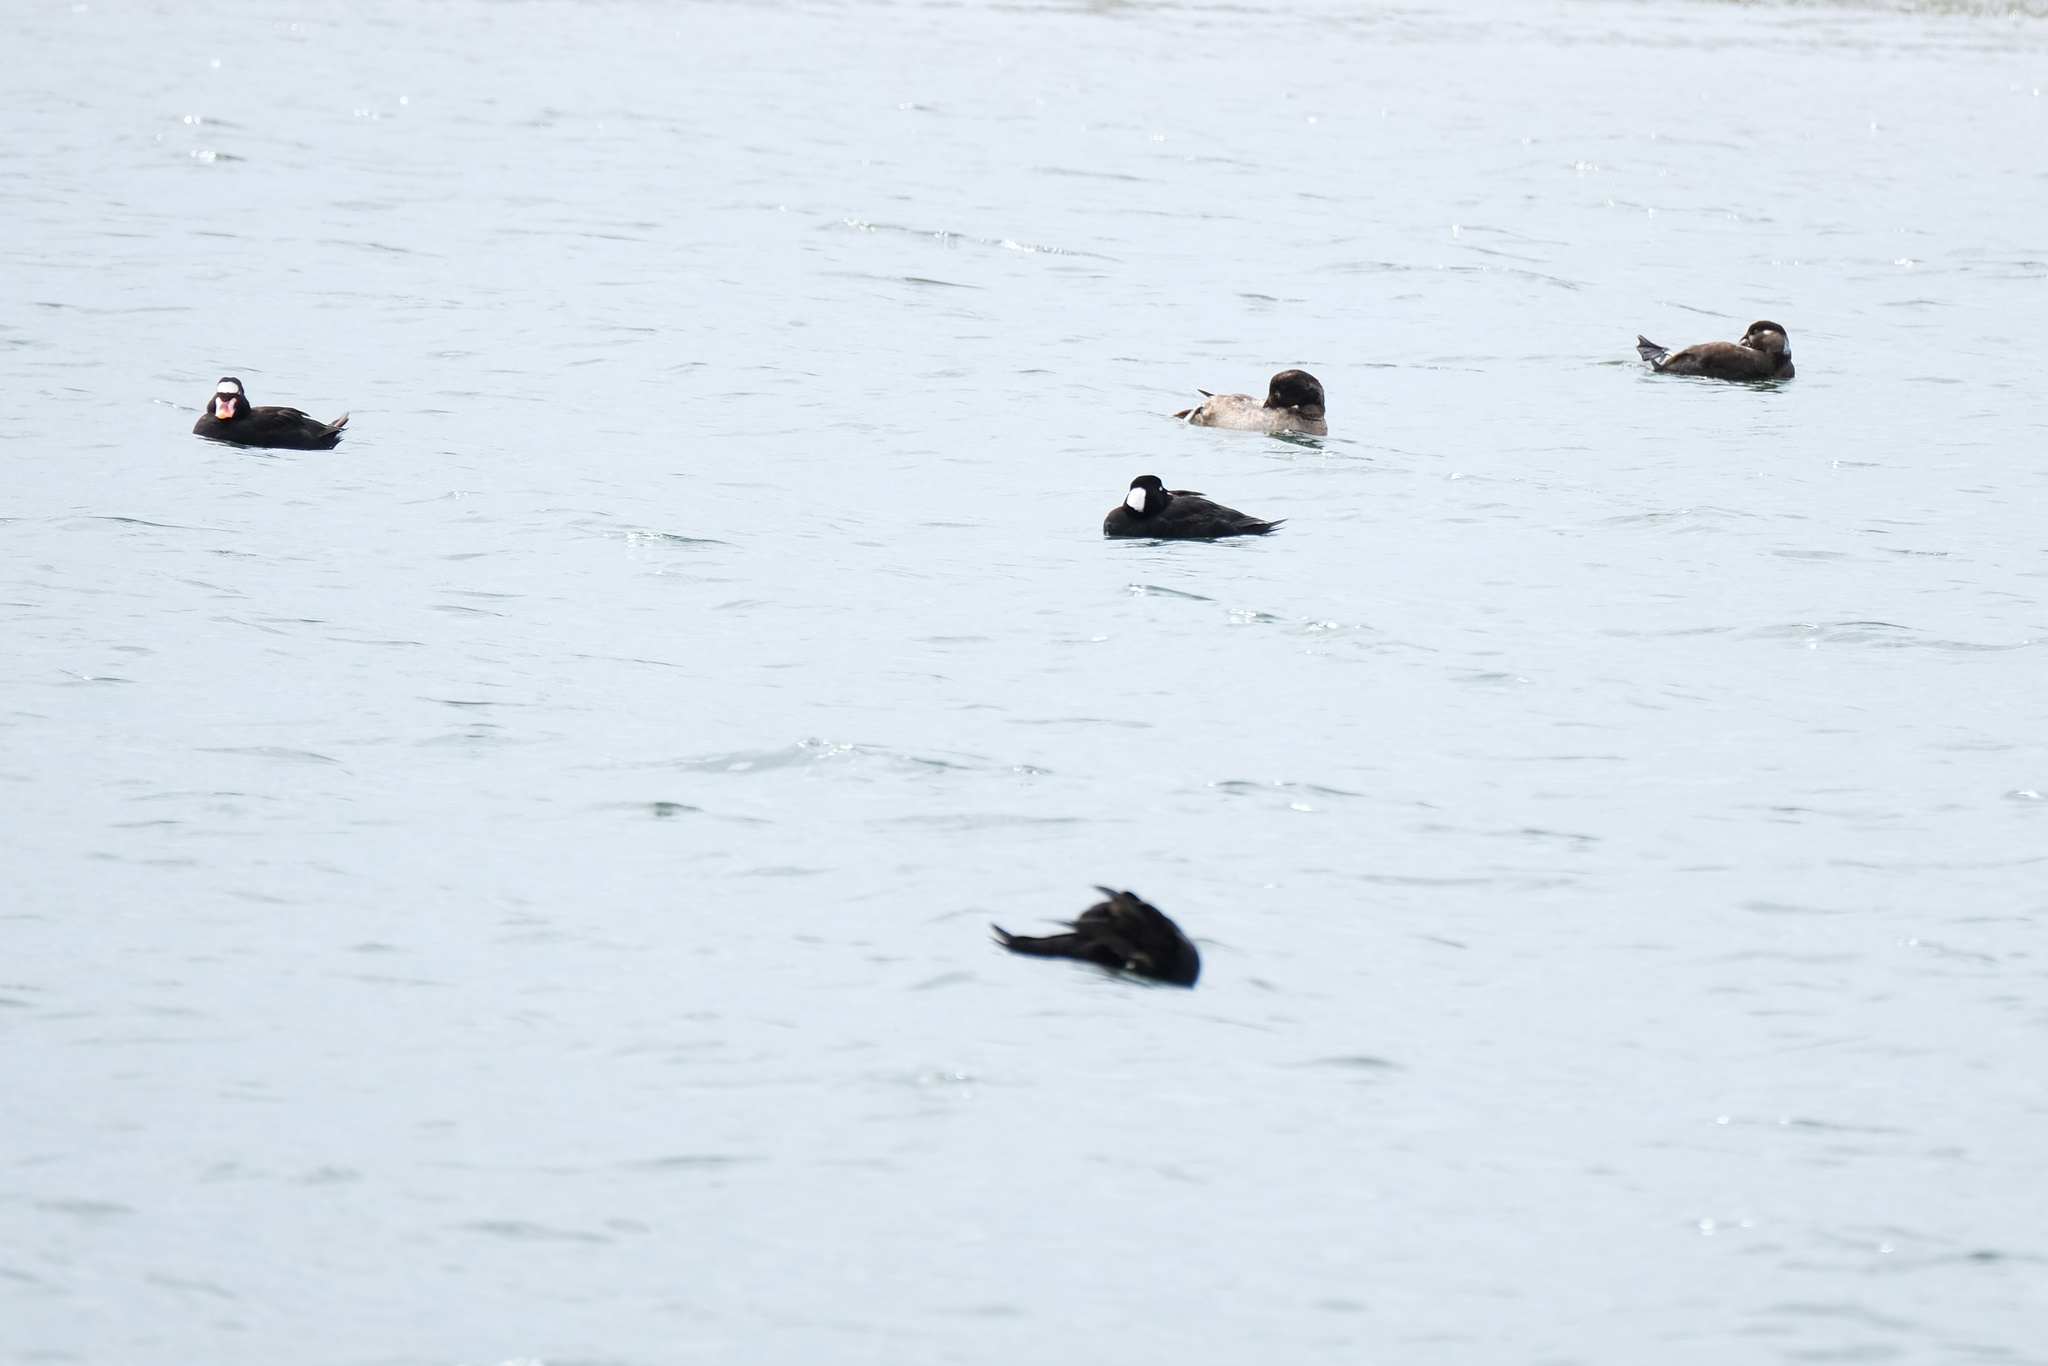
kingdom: Animalia
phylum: Chordata
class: Aves
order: Anseriformes
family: Anatidae
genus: Melanitta
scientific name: Melanitta deglandi
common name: White-winged scoter
